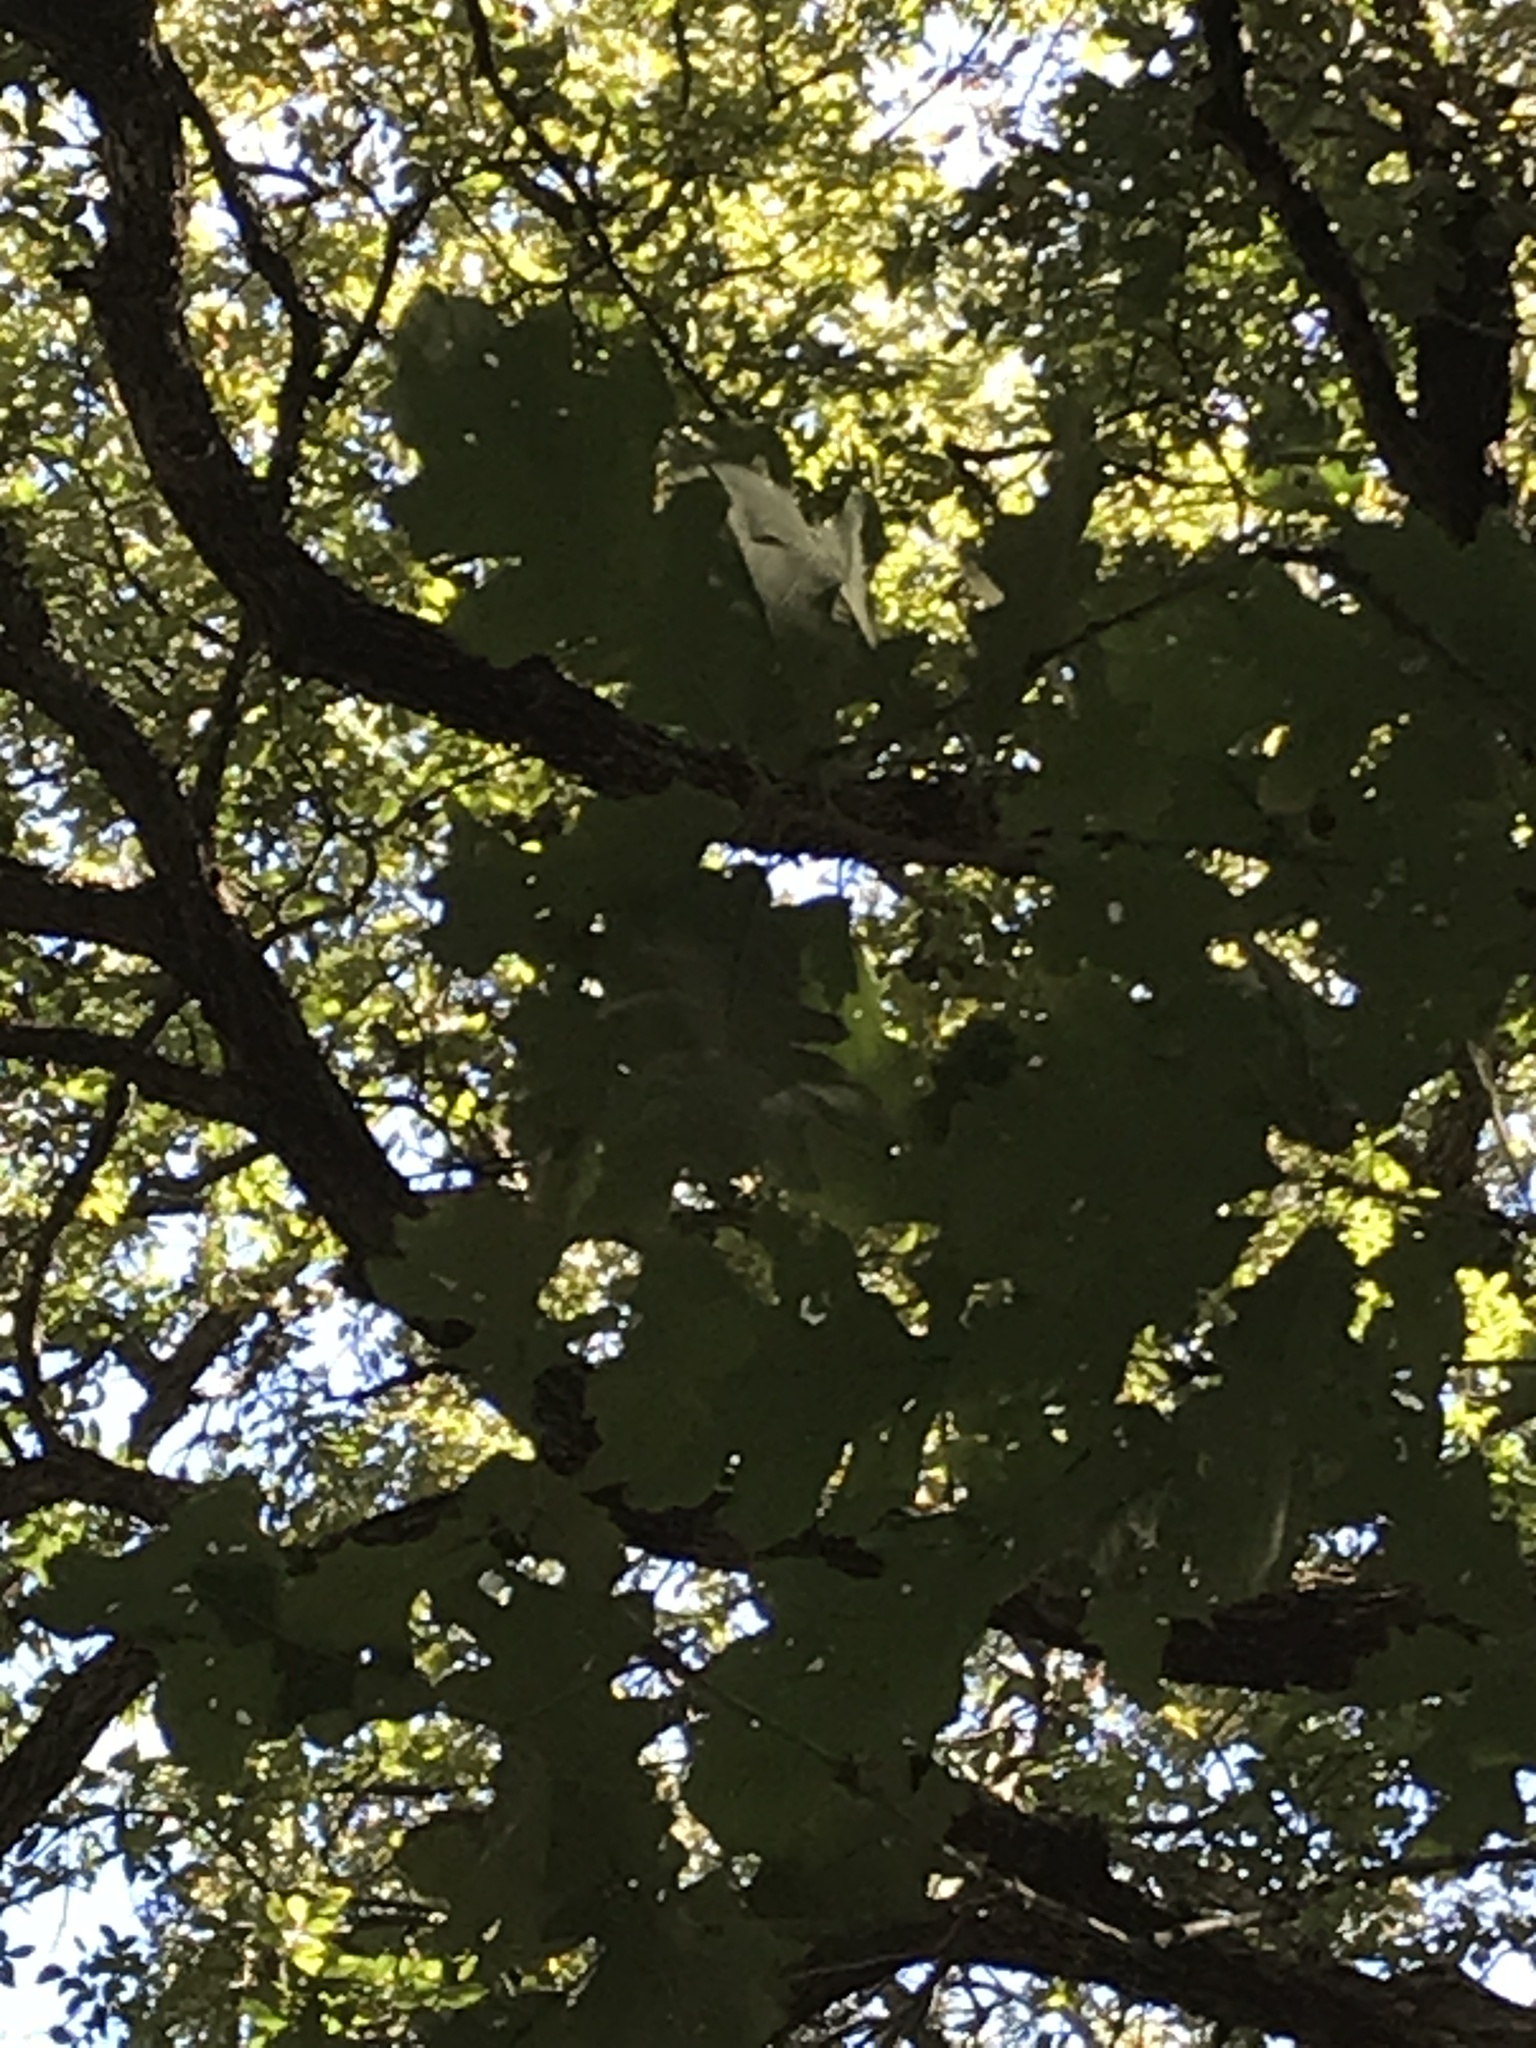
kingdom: Plantae
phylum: Tracheophyta
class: Magnoliopsida
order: Fagales
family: Fagaceae
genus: Quercus
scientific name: Quercus macrocarpa
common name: Bur oak
